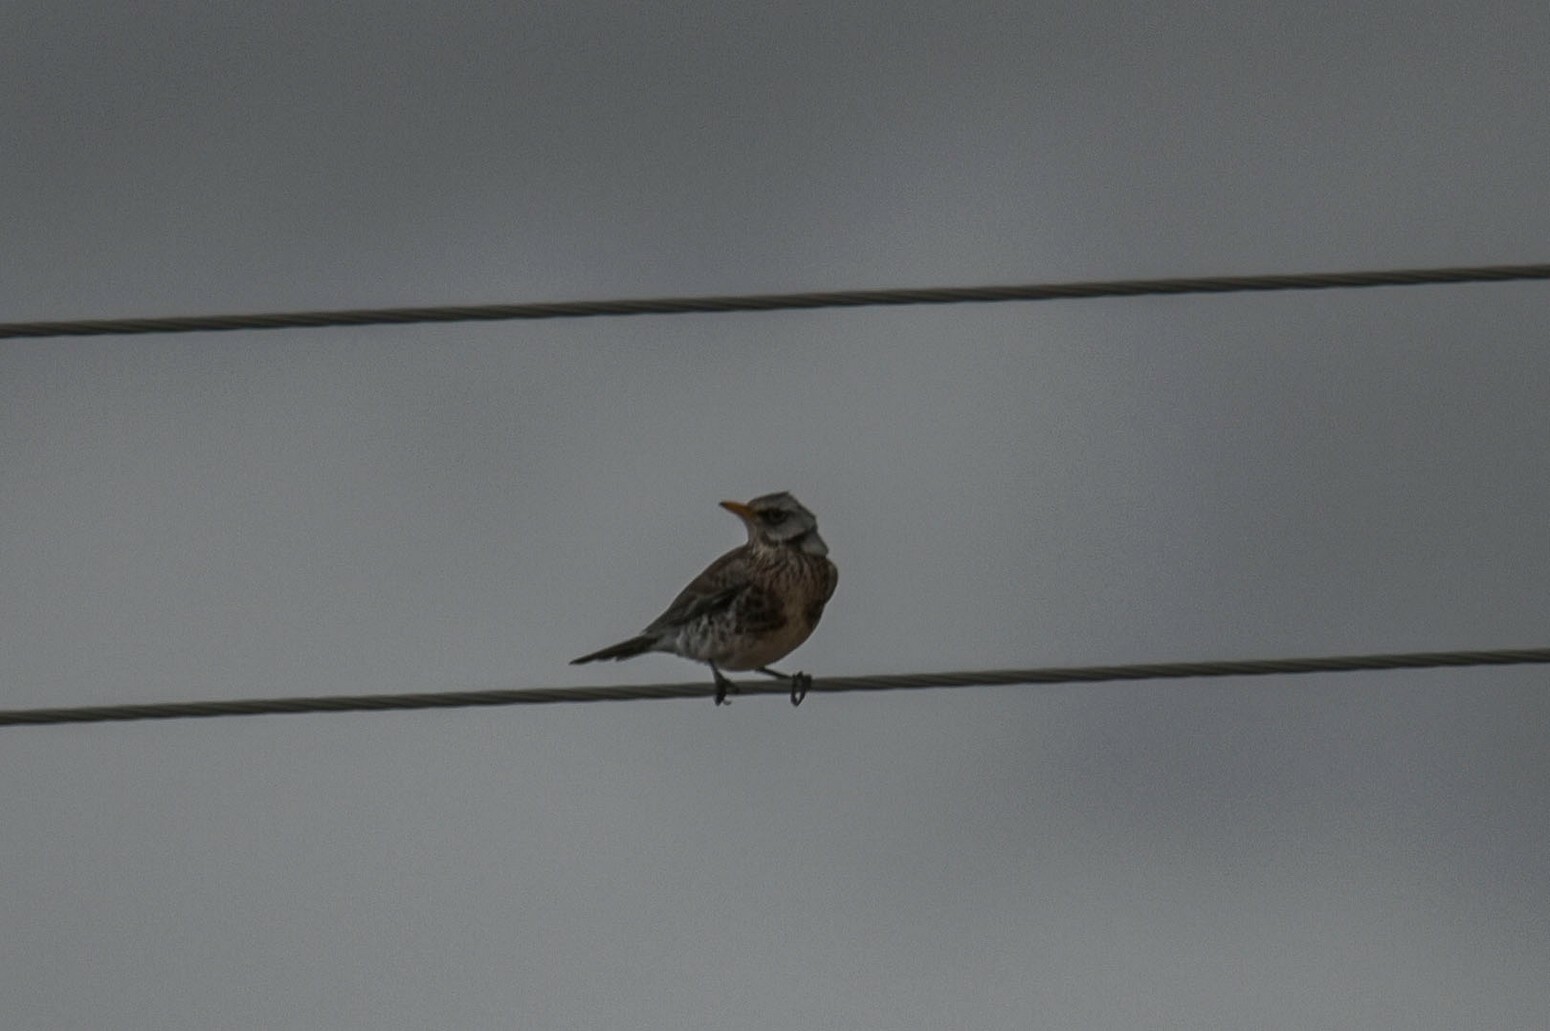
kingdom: Animalia
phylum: Chordata
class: Aves
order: Passeriformes
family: Turdidae
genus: Turdus
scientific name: Turdus pilaris
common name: Fieldfare
